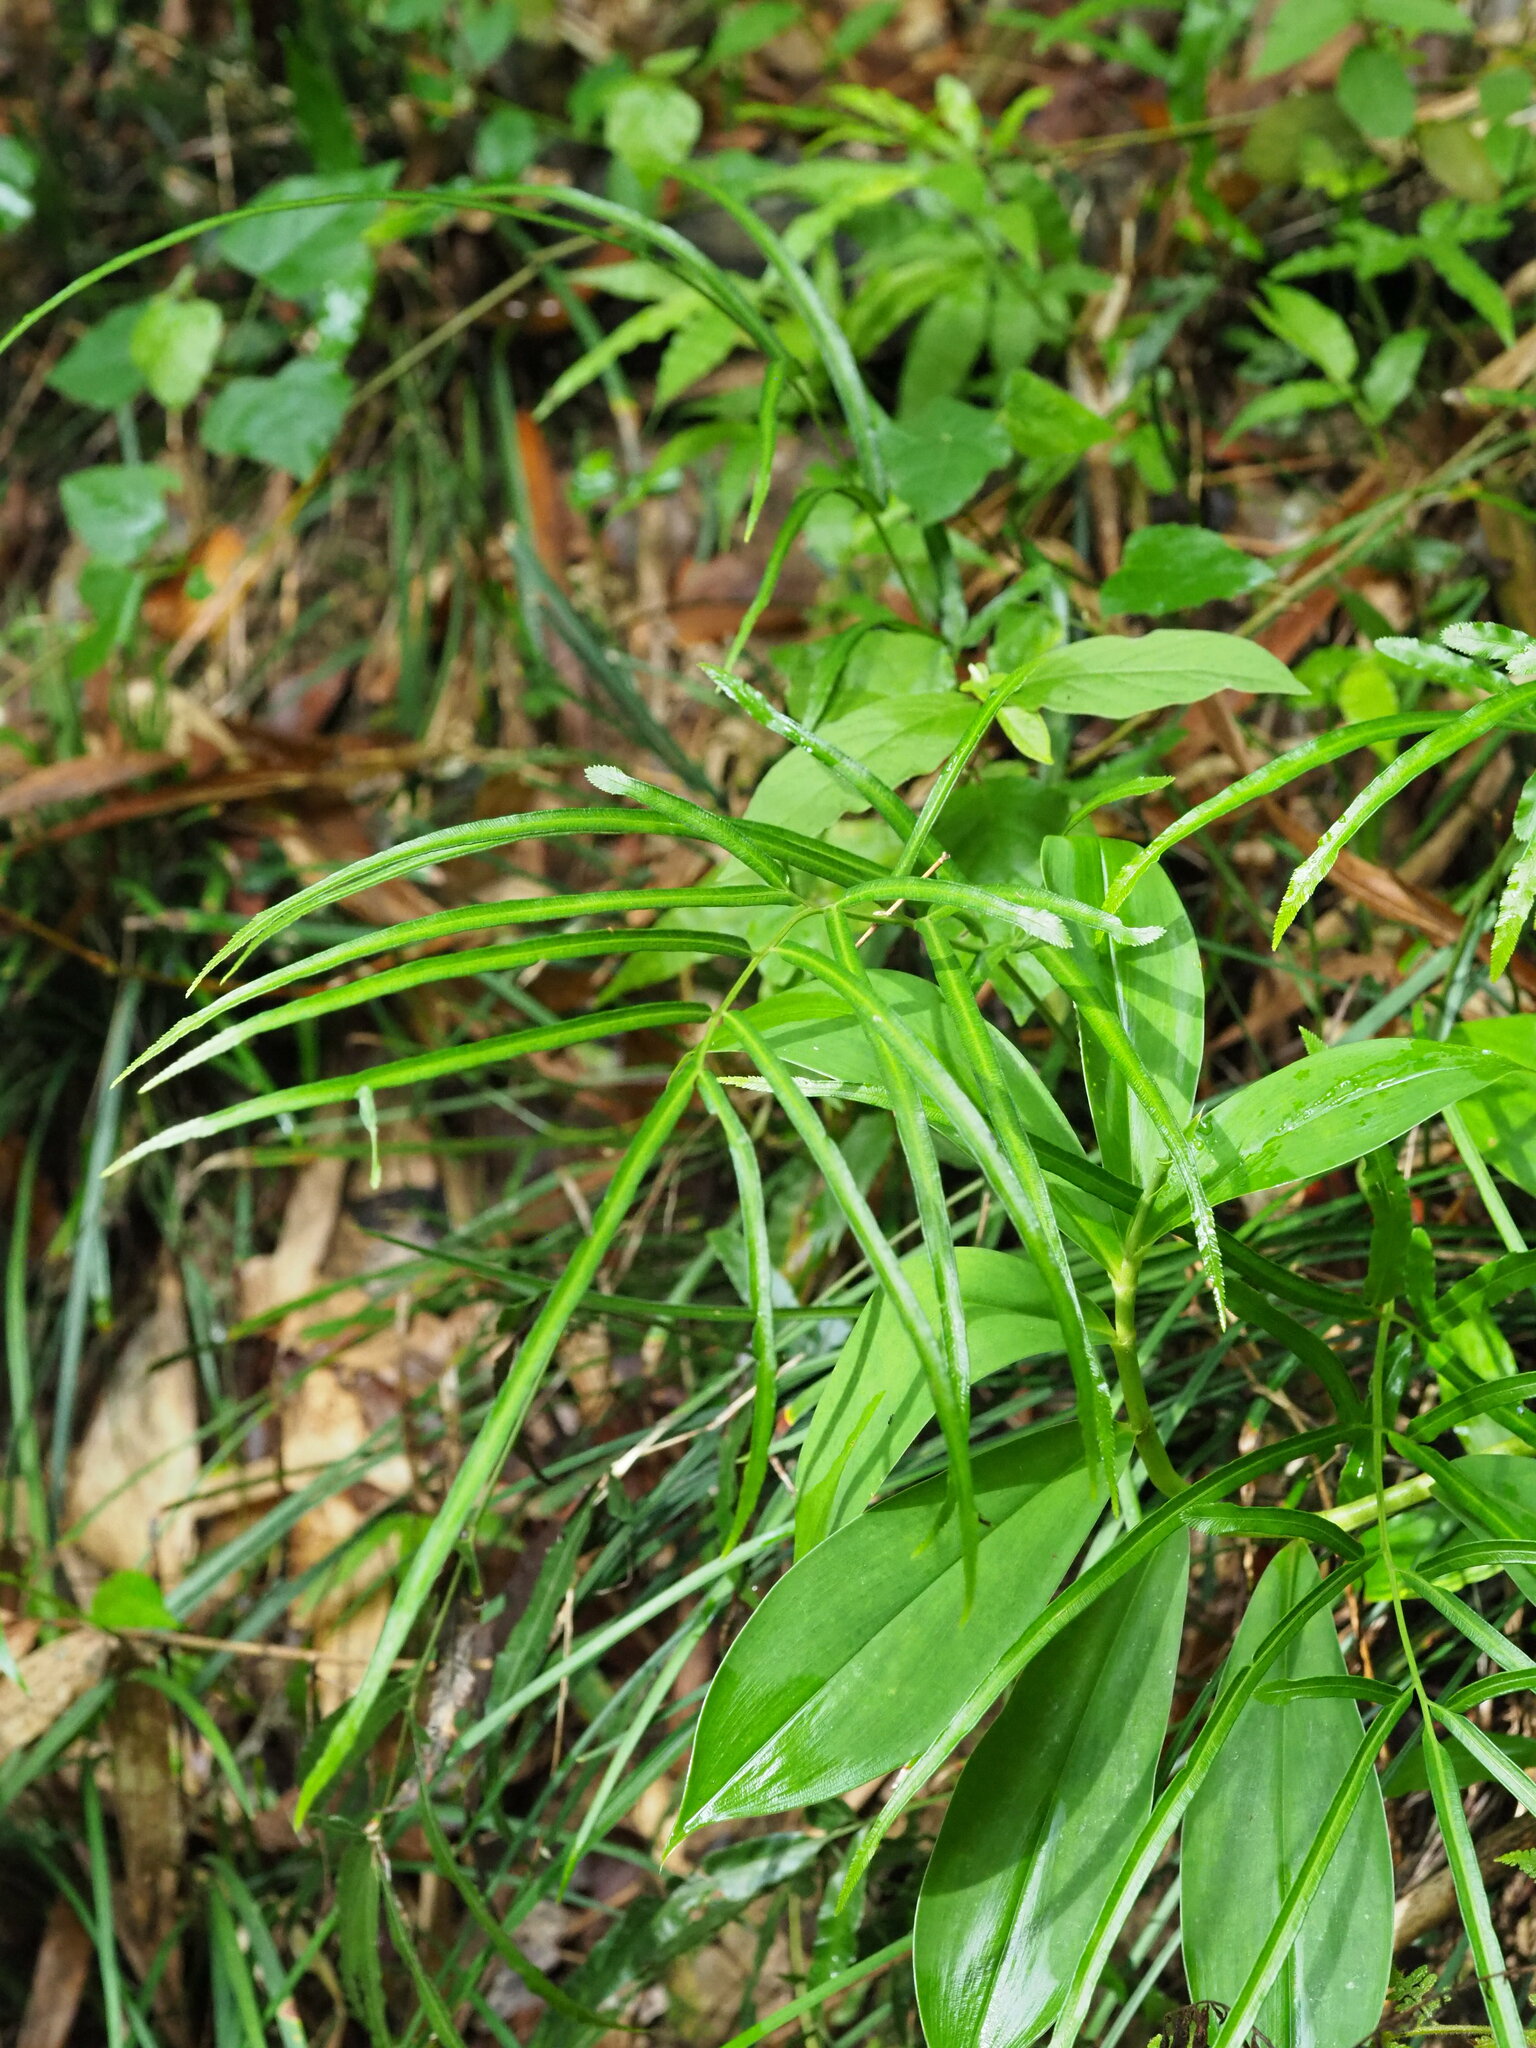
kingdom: Plantae
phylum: Tracheophyta
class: Polypodiopsida
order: Polypodiales
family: Pteridaceae
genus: Pteris
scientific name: Pteris ensiformis
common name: Sword brake
